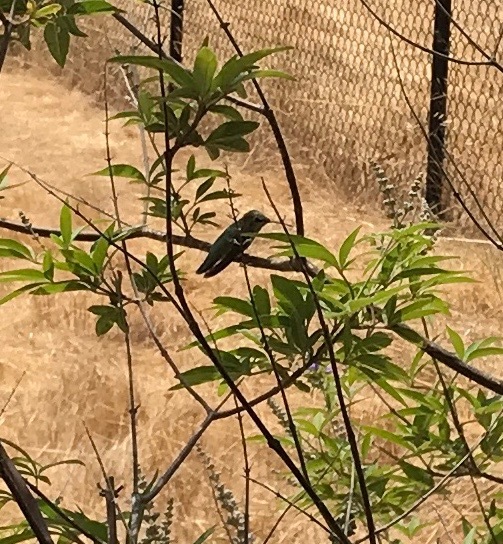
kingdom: Animalia
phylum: Chordata
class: Aves
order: Apodiformes
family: Trochilidae
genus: Calypte
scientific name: Calypte anna
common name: Anna's hummingbird
